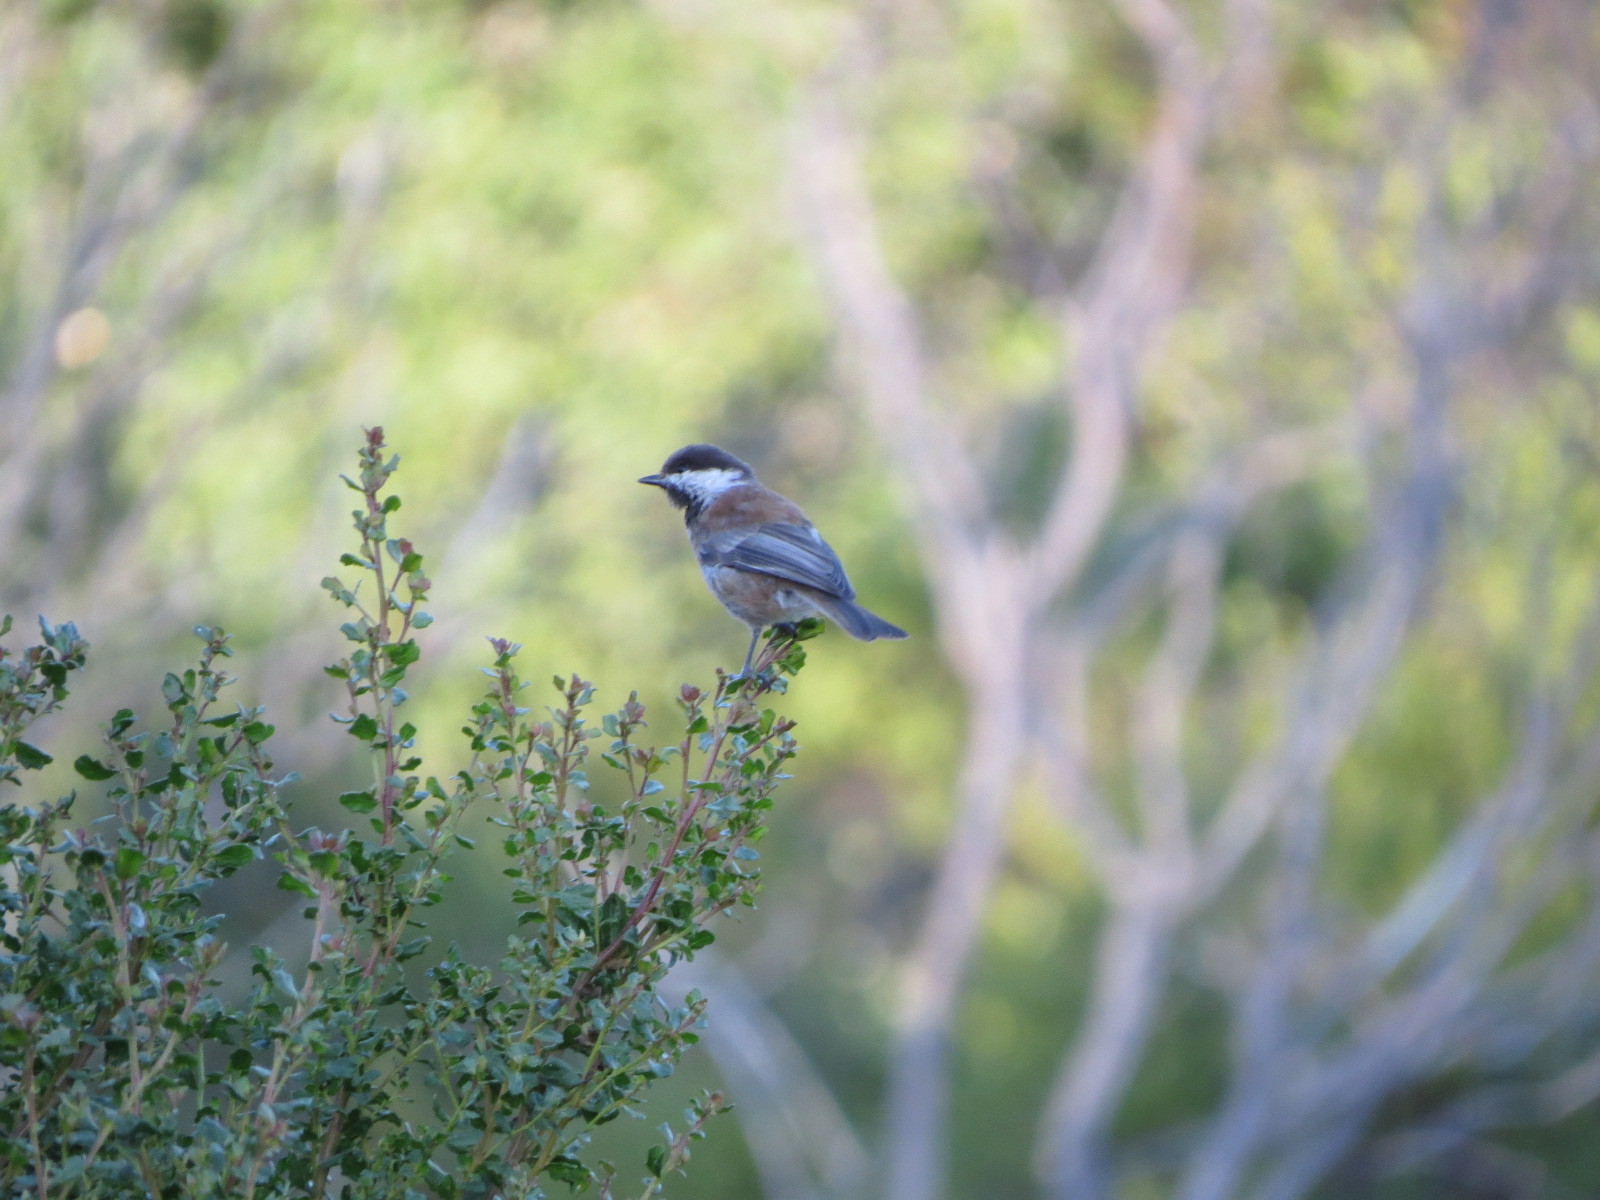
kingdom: Animalia
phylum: Chordata
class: Aves
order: Passeriformes
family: Paridae
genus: Poecile
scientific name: Poecile rufescens
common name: Chestnut-backed chickadee
